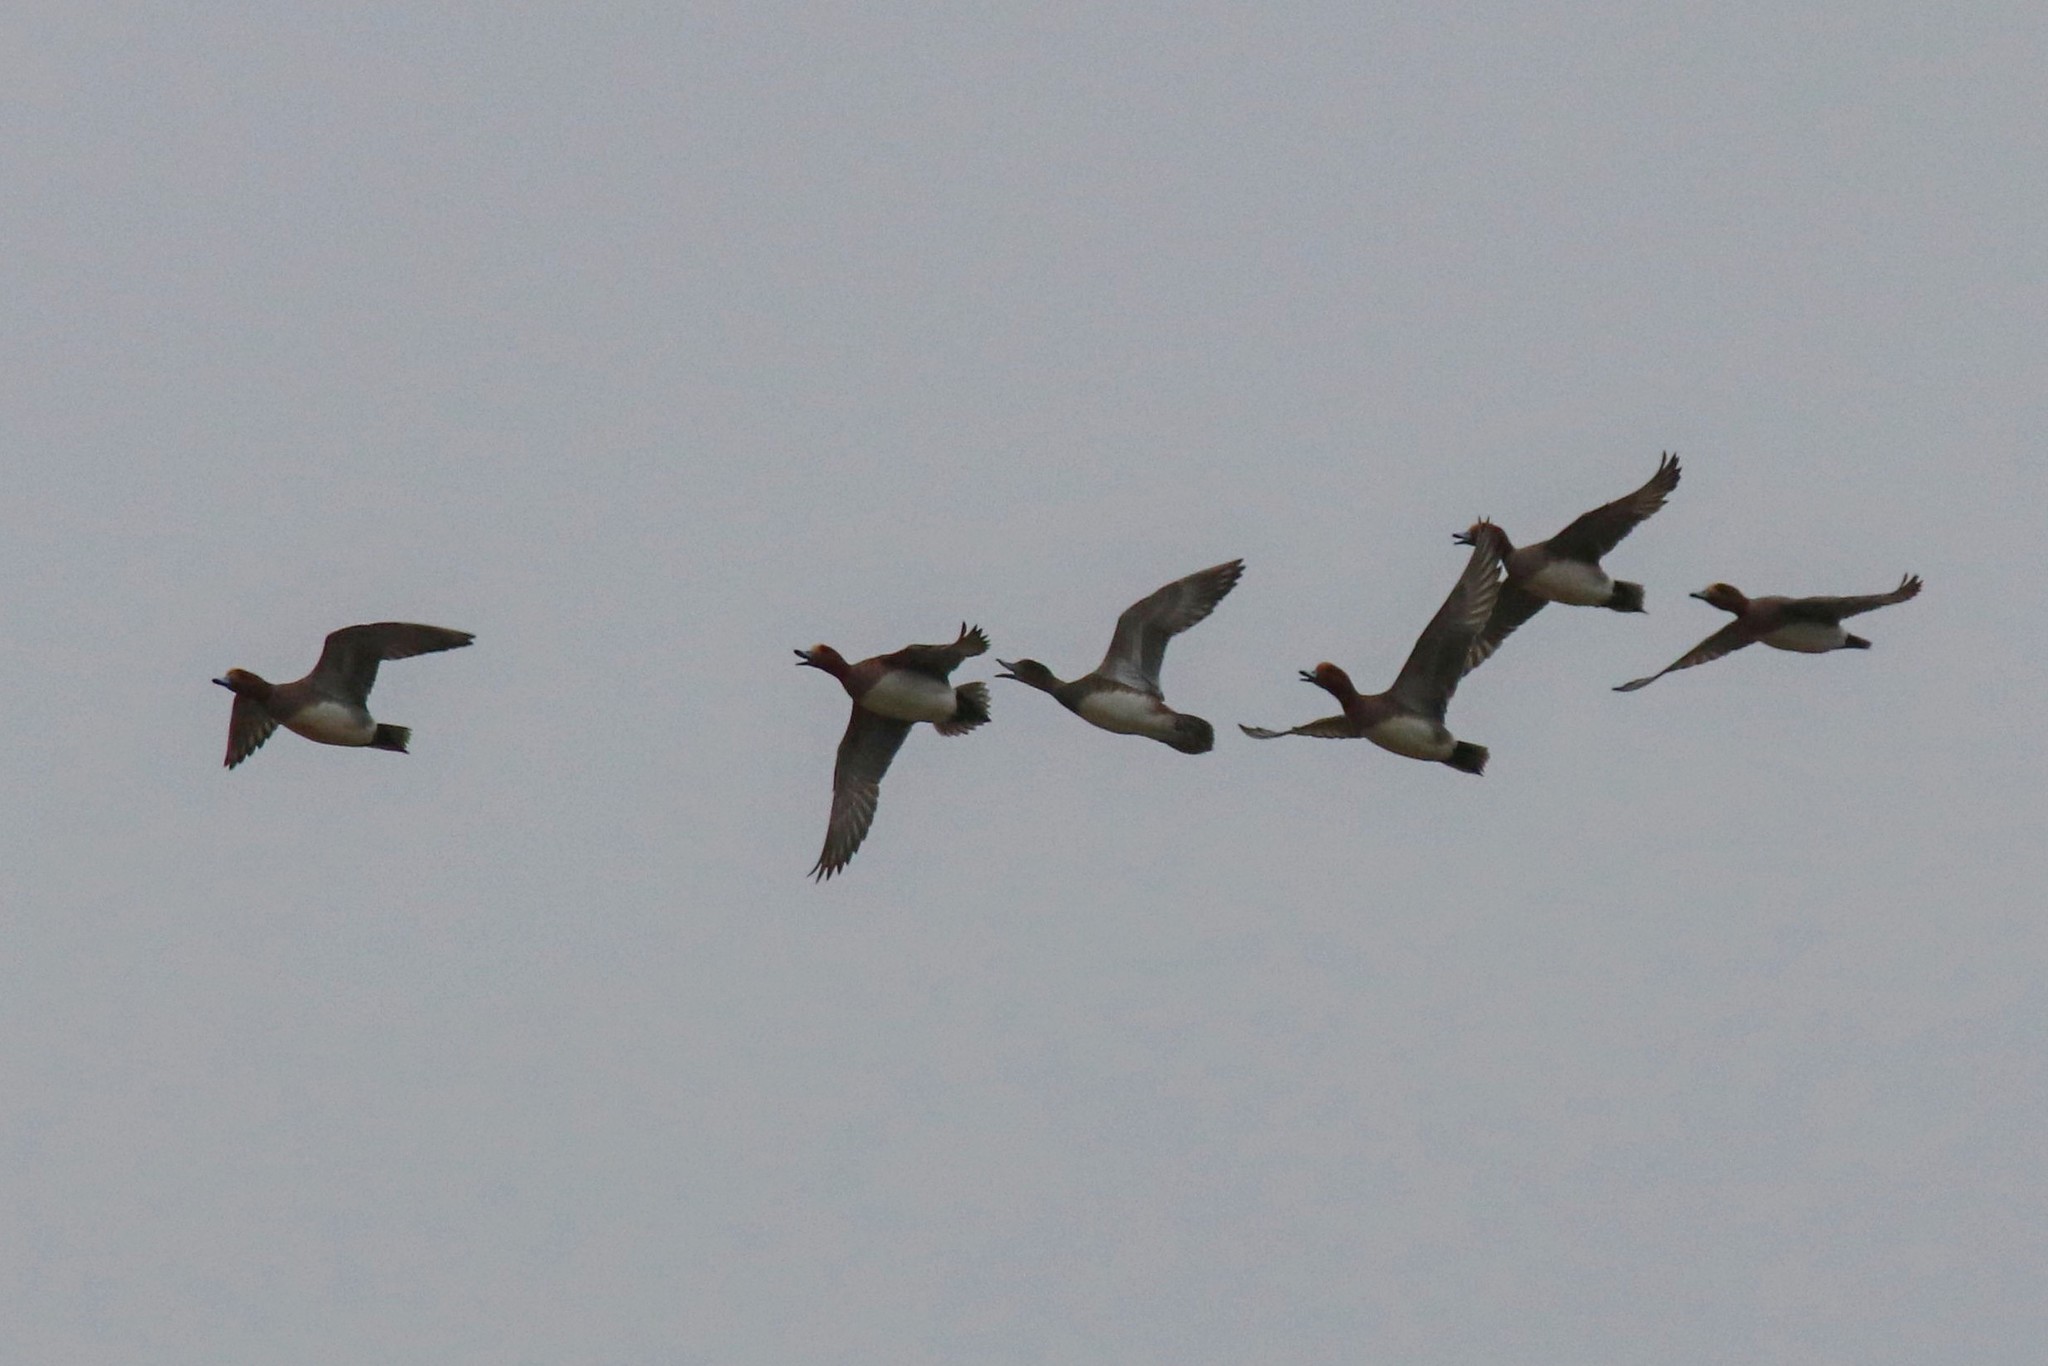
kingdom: Animalia
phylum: Chordata
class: Aves
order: Anseriformes
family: Anatidae
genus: Mareca
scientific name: Mareca penelope
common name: Eurasian wigeon
